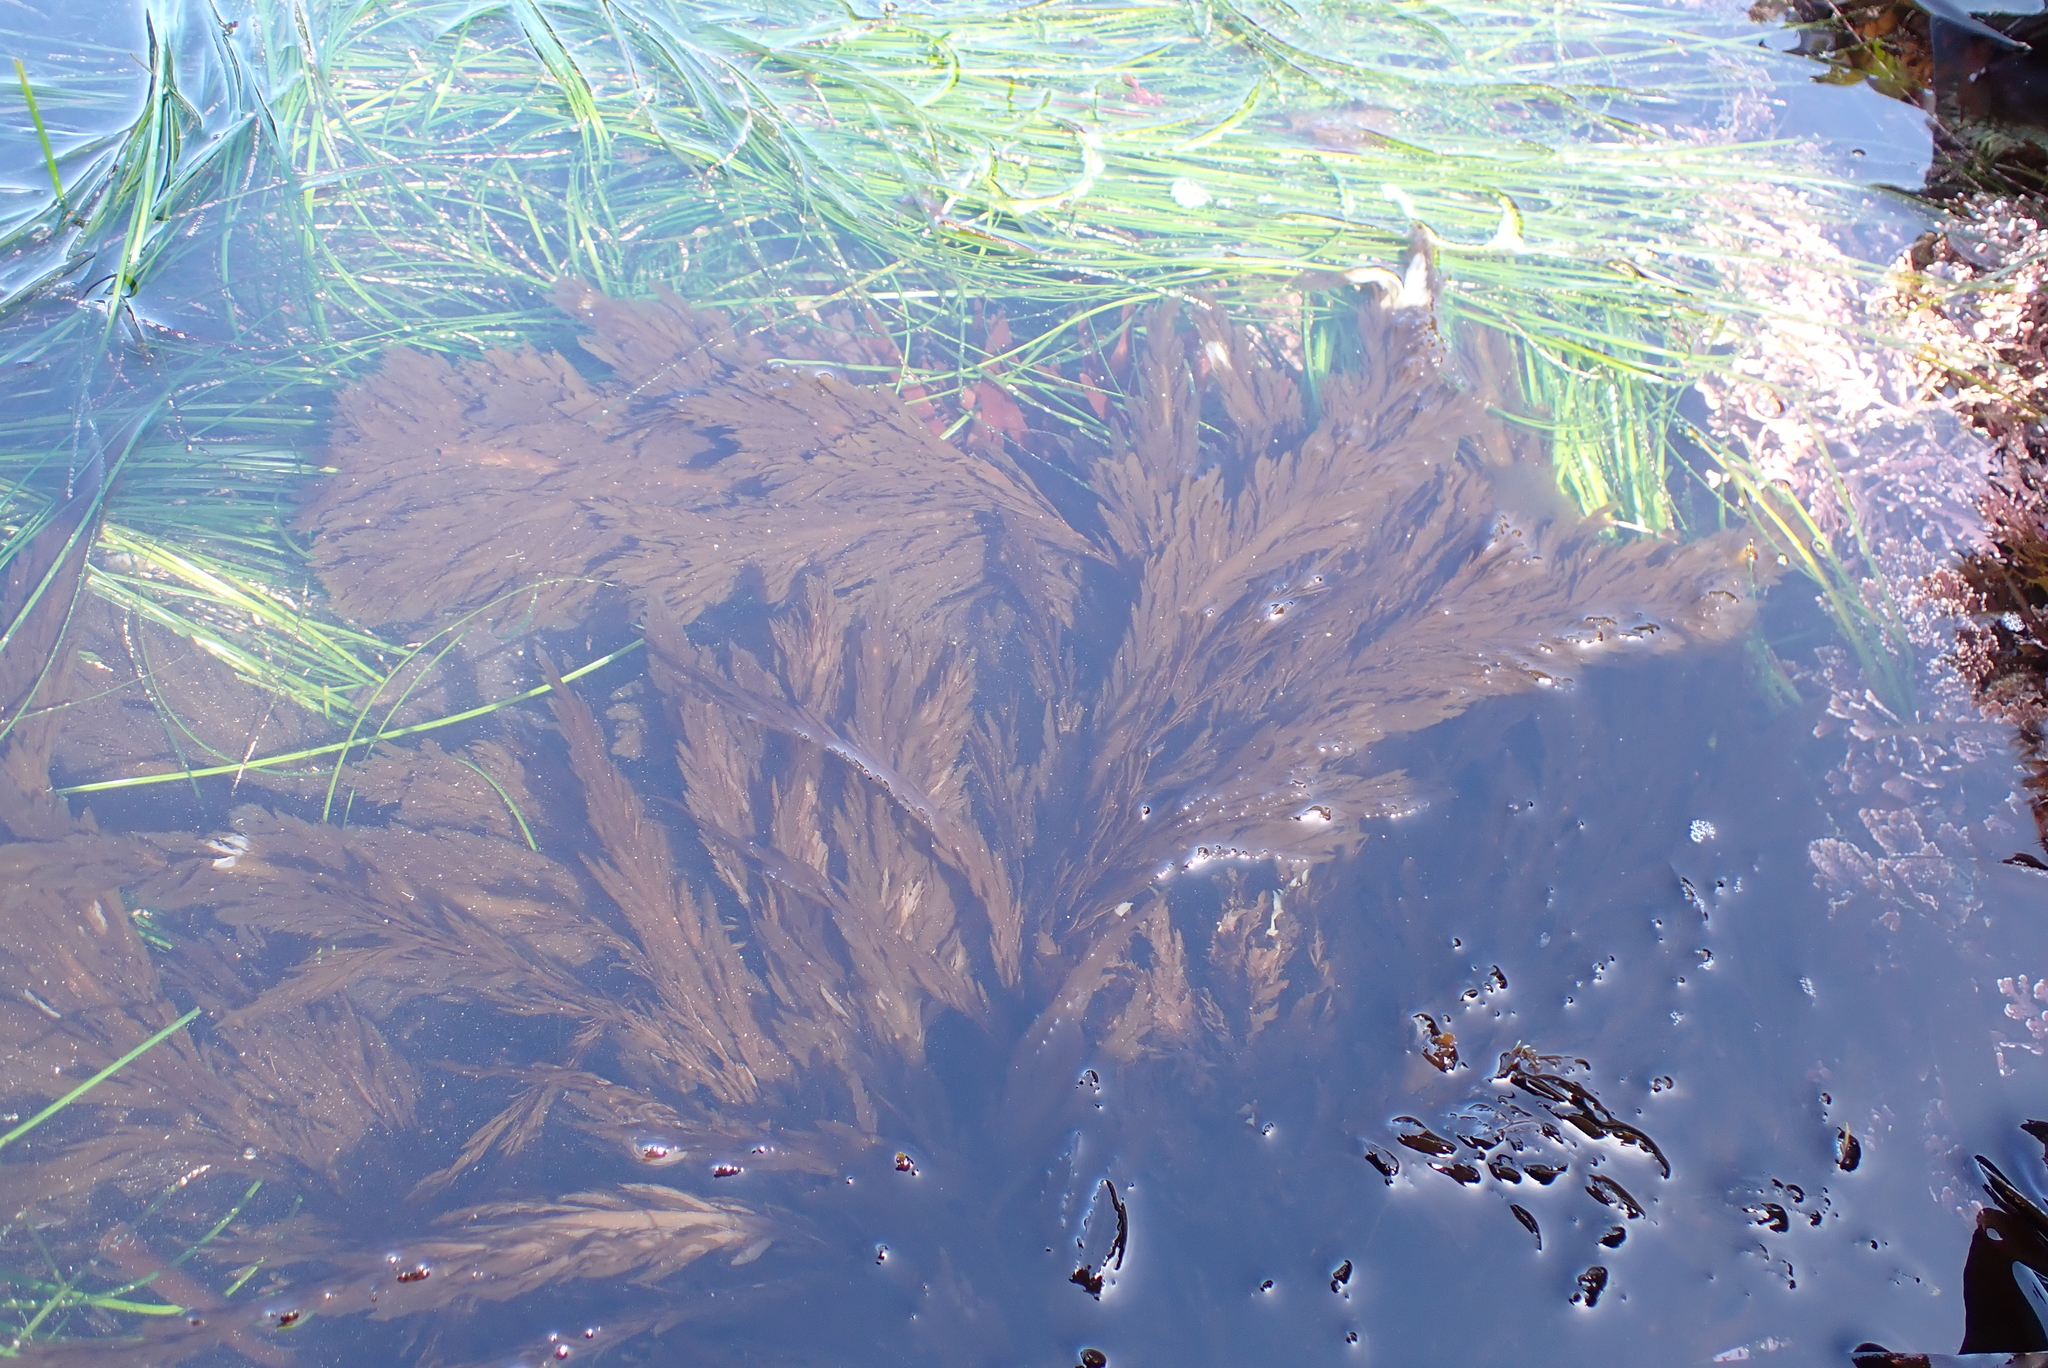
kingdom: Chromista
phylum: Ochrophyta
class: Phaeophyceae
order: Desmarestiales
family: Desmarestiaceae
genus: Desmarestia
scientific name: Desmarestia ligulata
